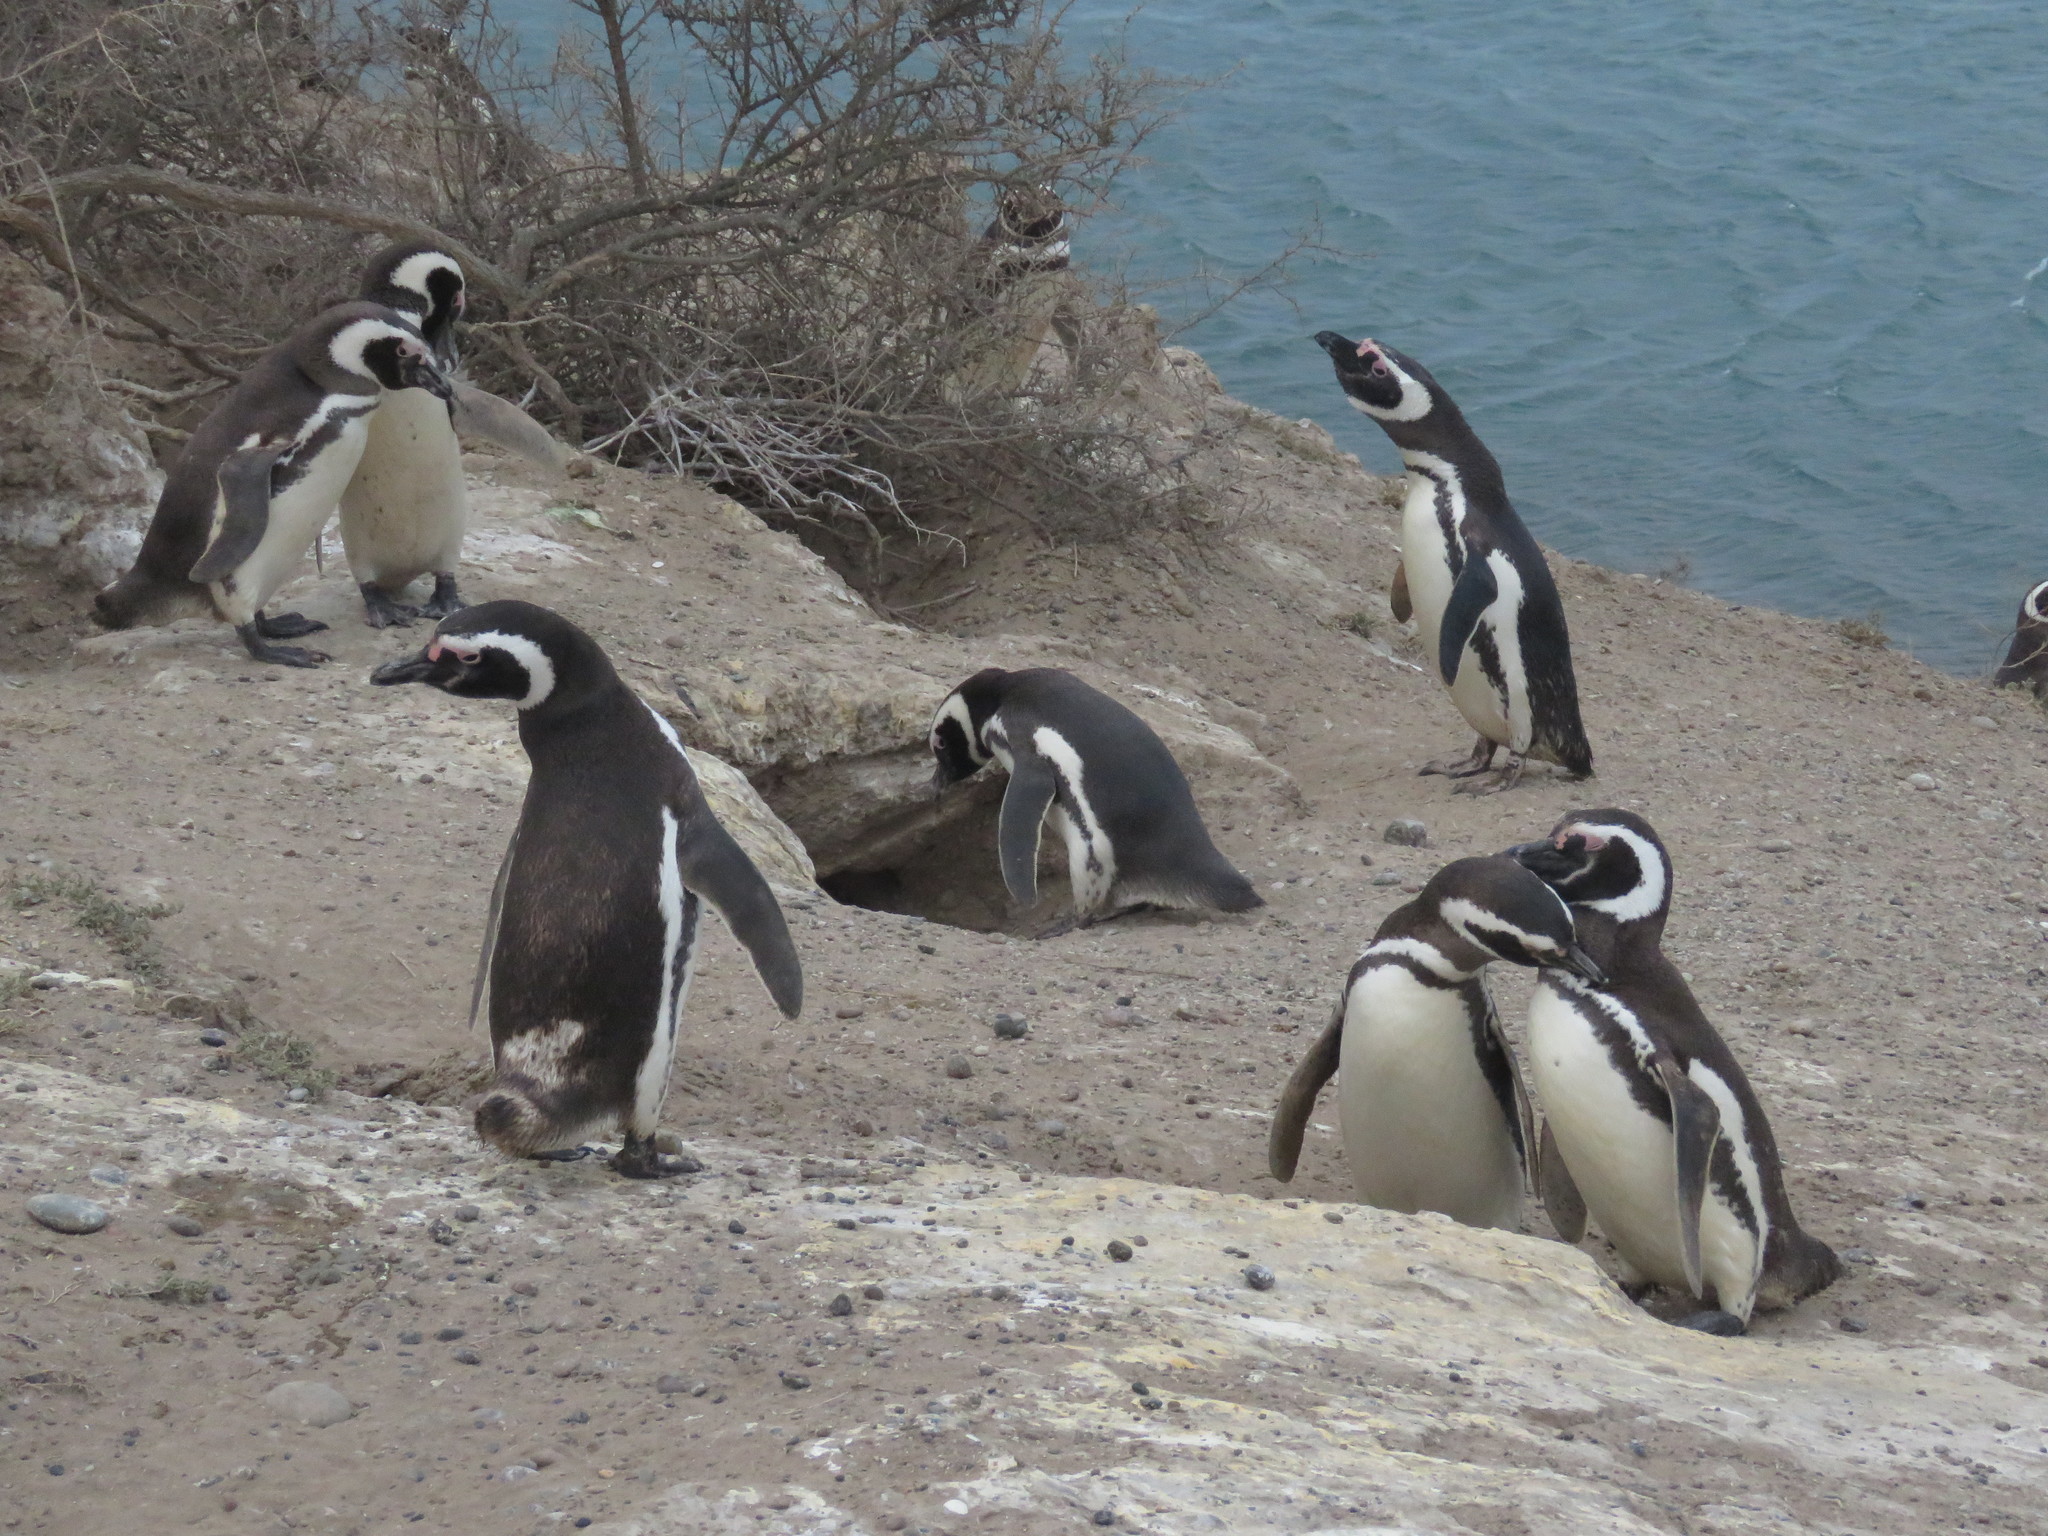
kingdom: Animalia
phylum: Chordata
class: Aves
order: Sphenisciformes
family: Spheniscidae
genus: Spheniscus
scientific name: Spheniscus magellanicus
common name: Magellanic penguin
